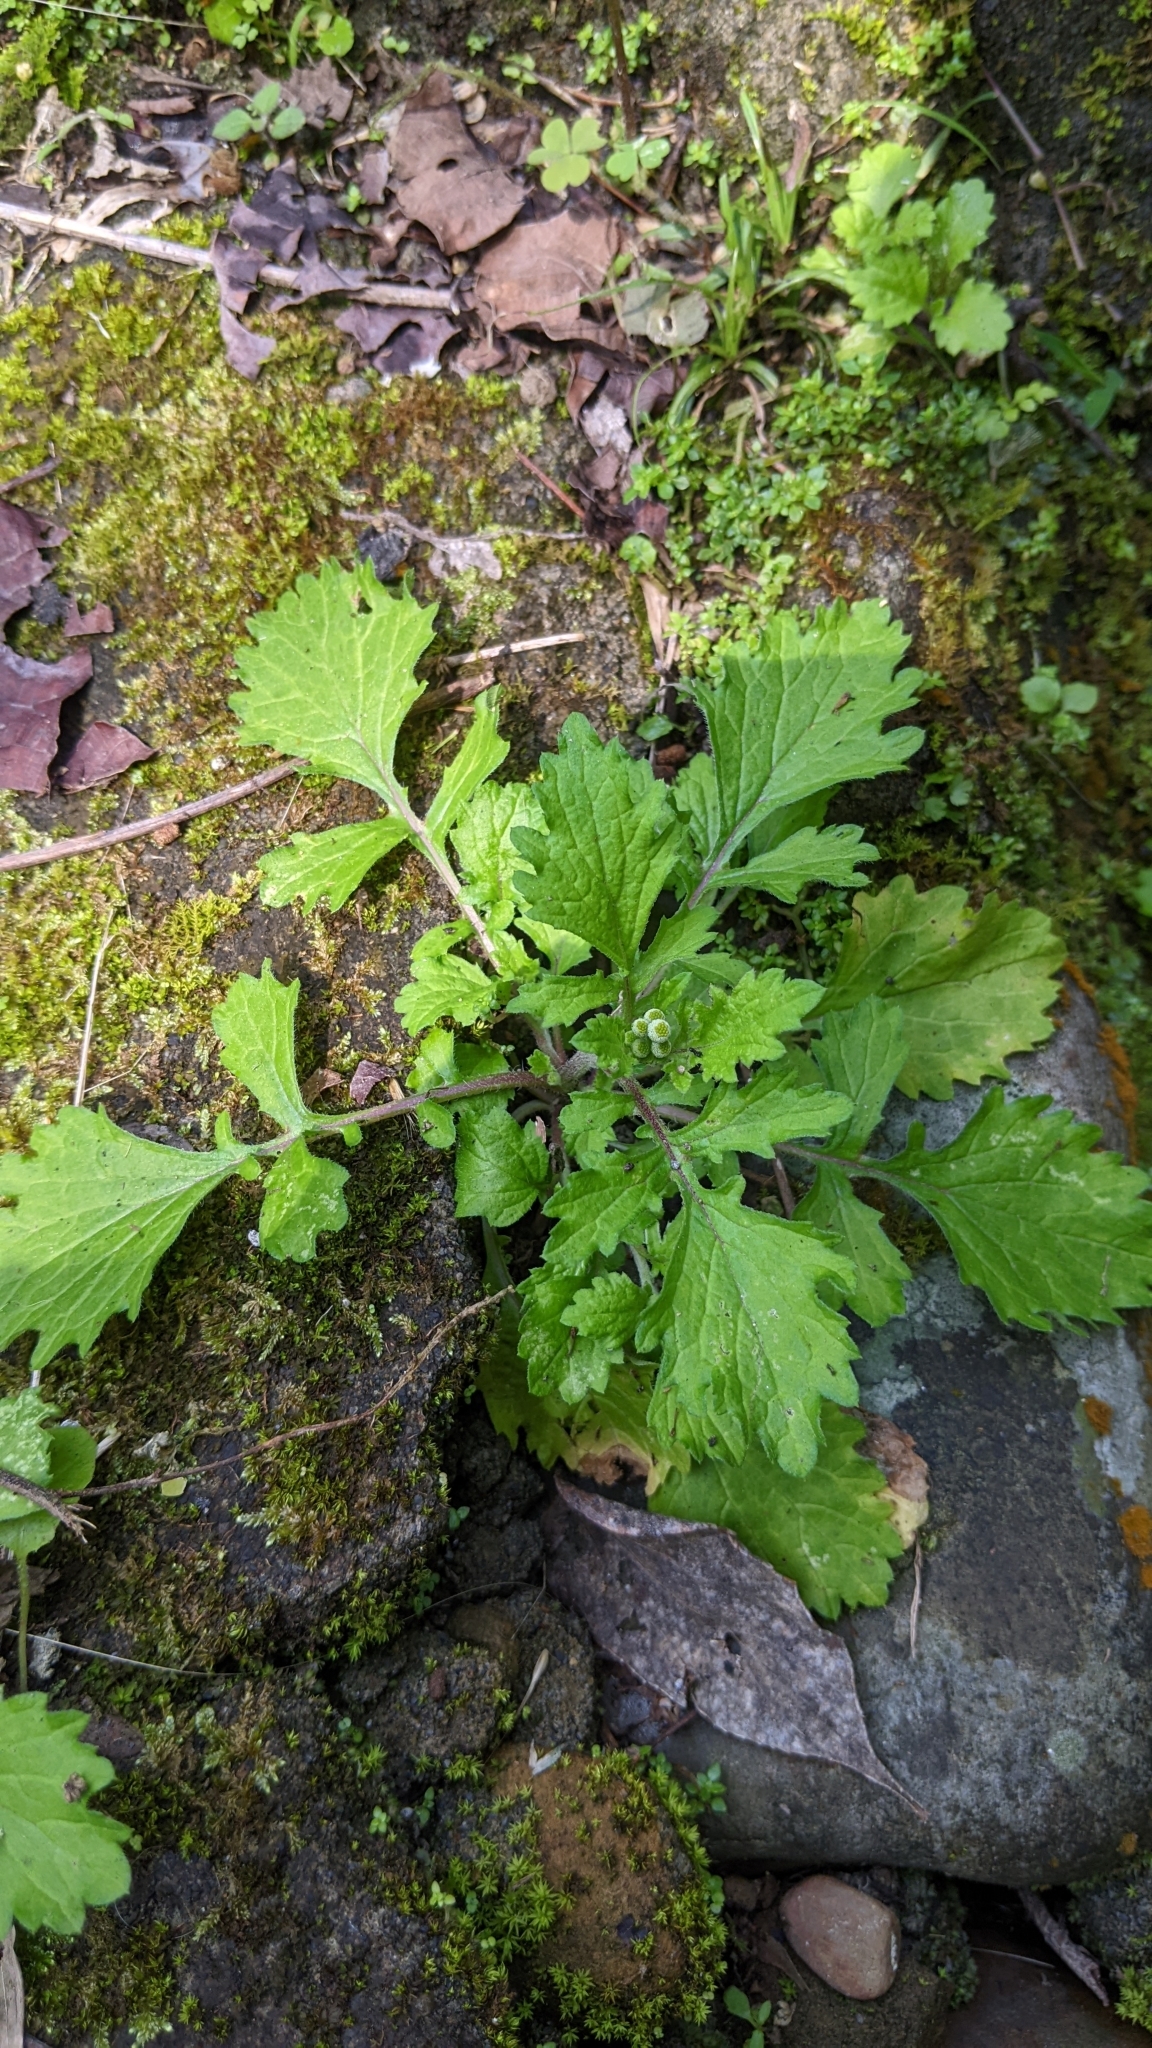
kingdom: Plantae
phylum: Tracheophyta
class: Magnoliopsida
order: Asterales
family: Asteraceae
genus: Dichrocephala
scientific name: Dichrocephala integrifolia
